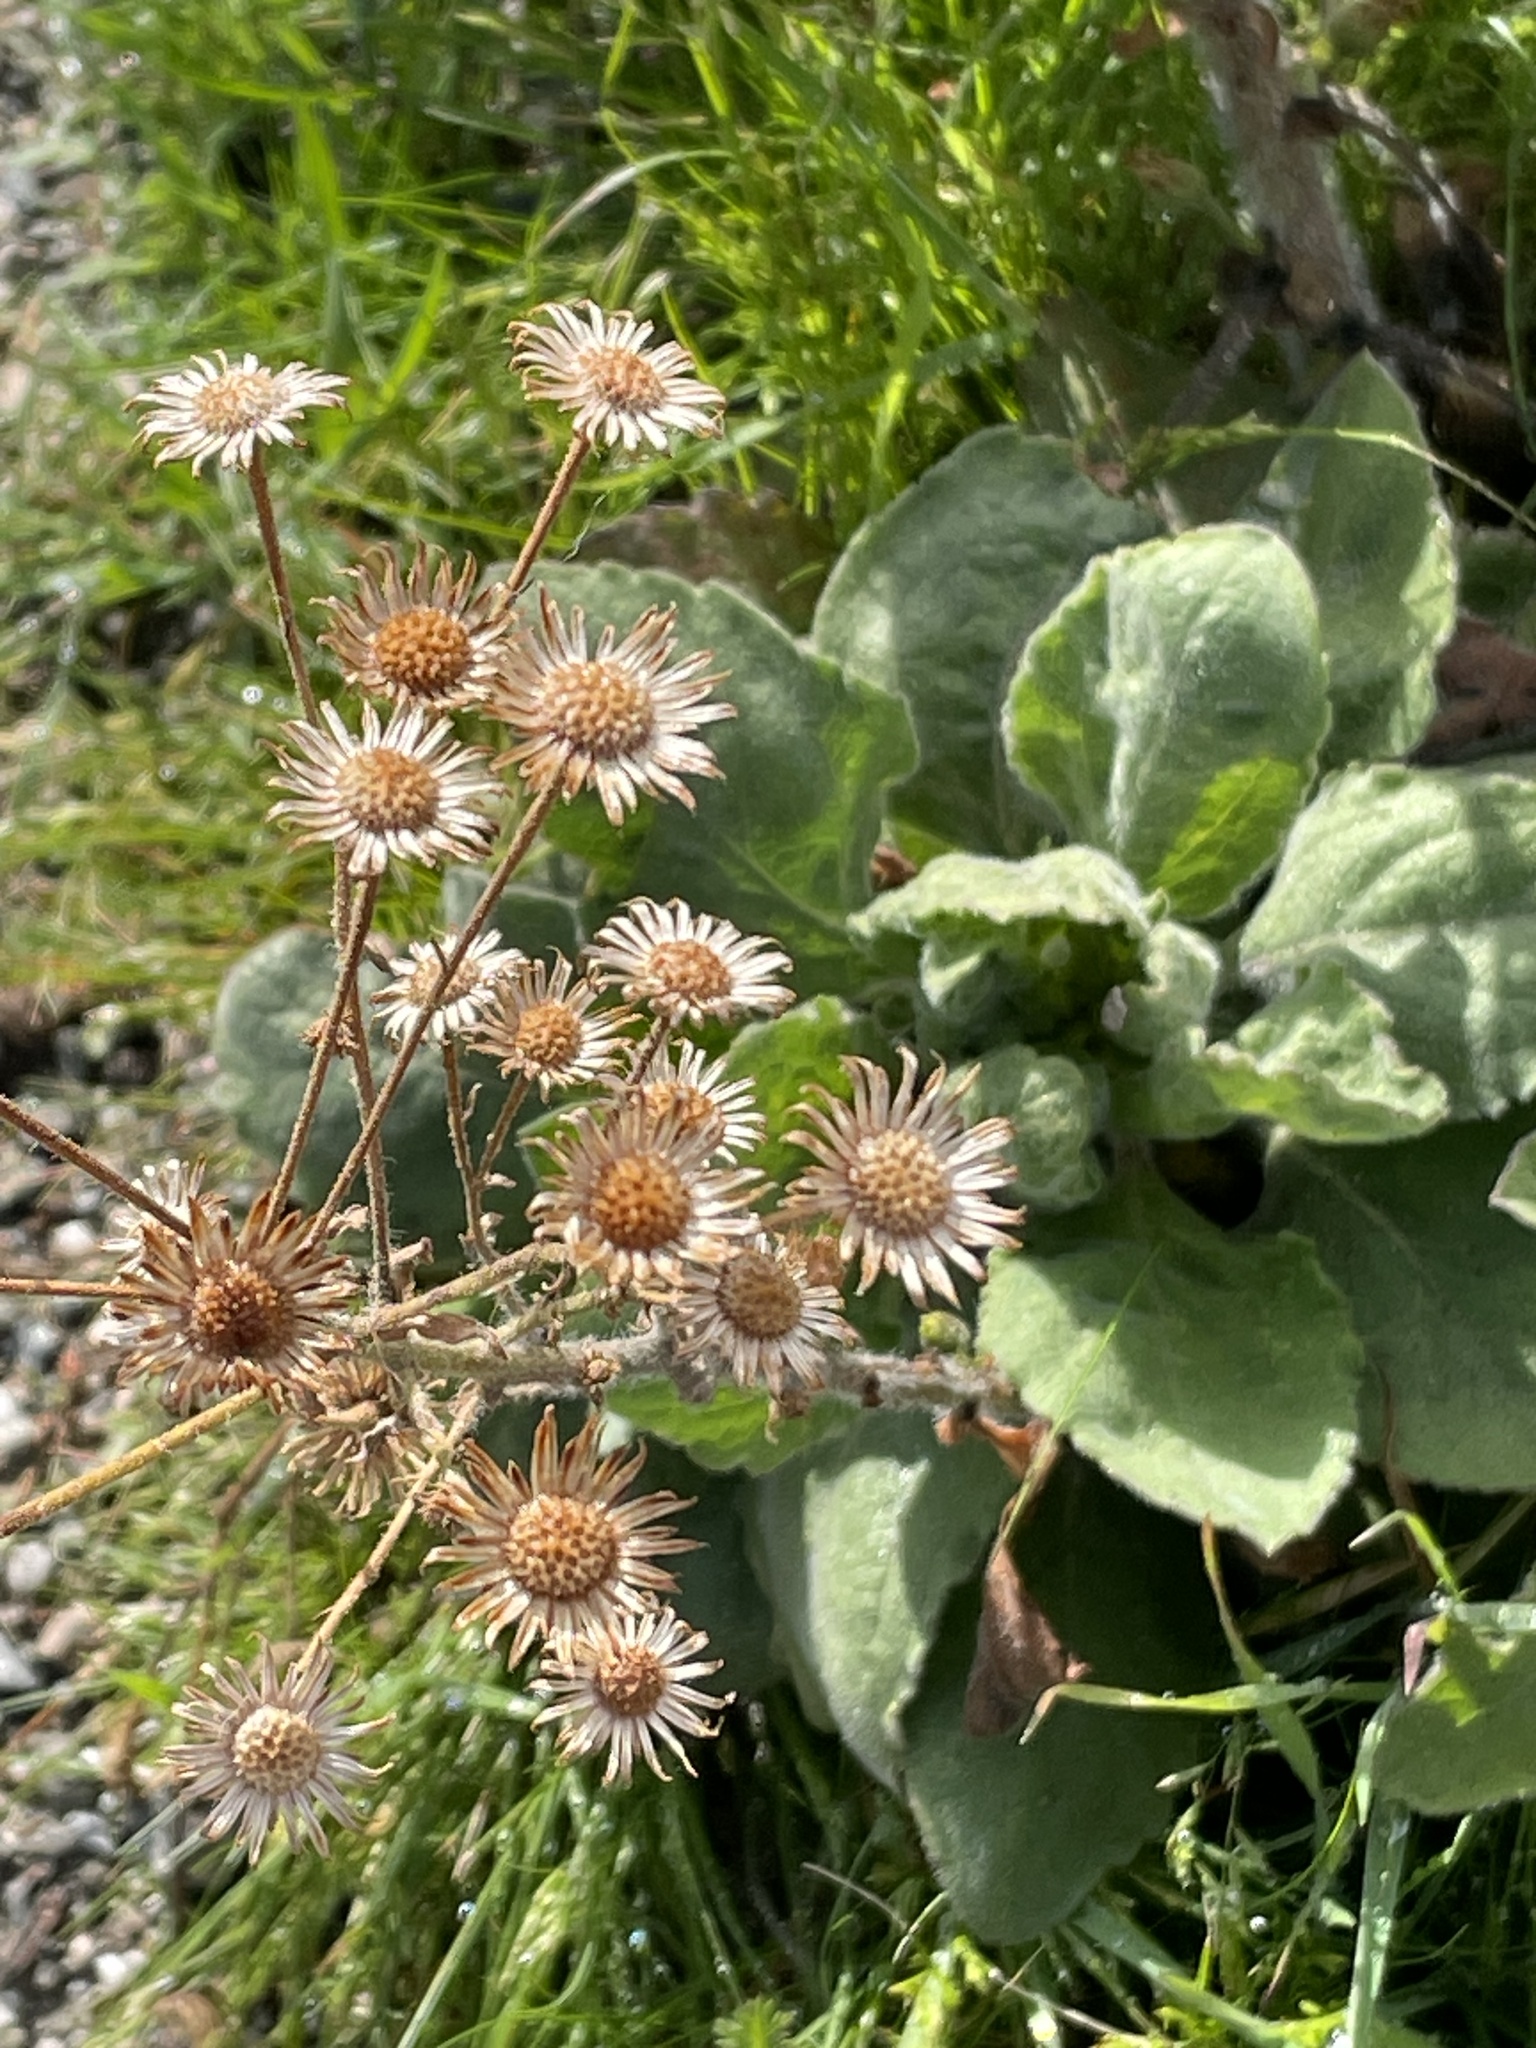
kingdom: Plantae
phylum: Tracheophyta
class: Magnoliopsida
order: Asterales
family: Asteraceae
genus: Heterotheca
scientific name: Heterotheca grandiflora
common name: Telegraphweed
